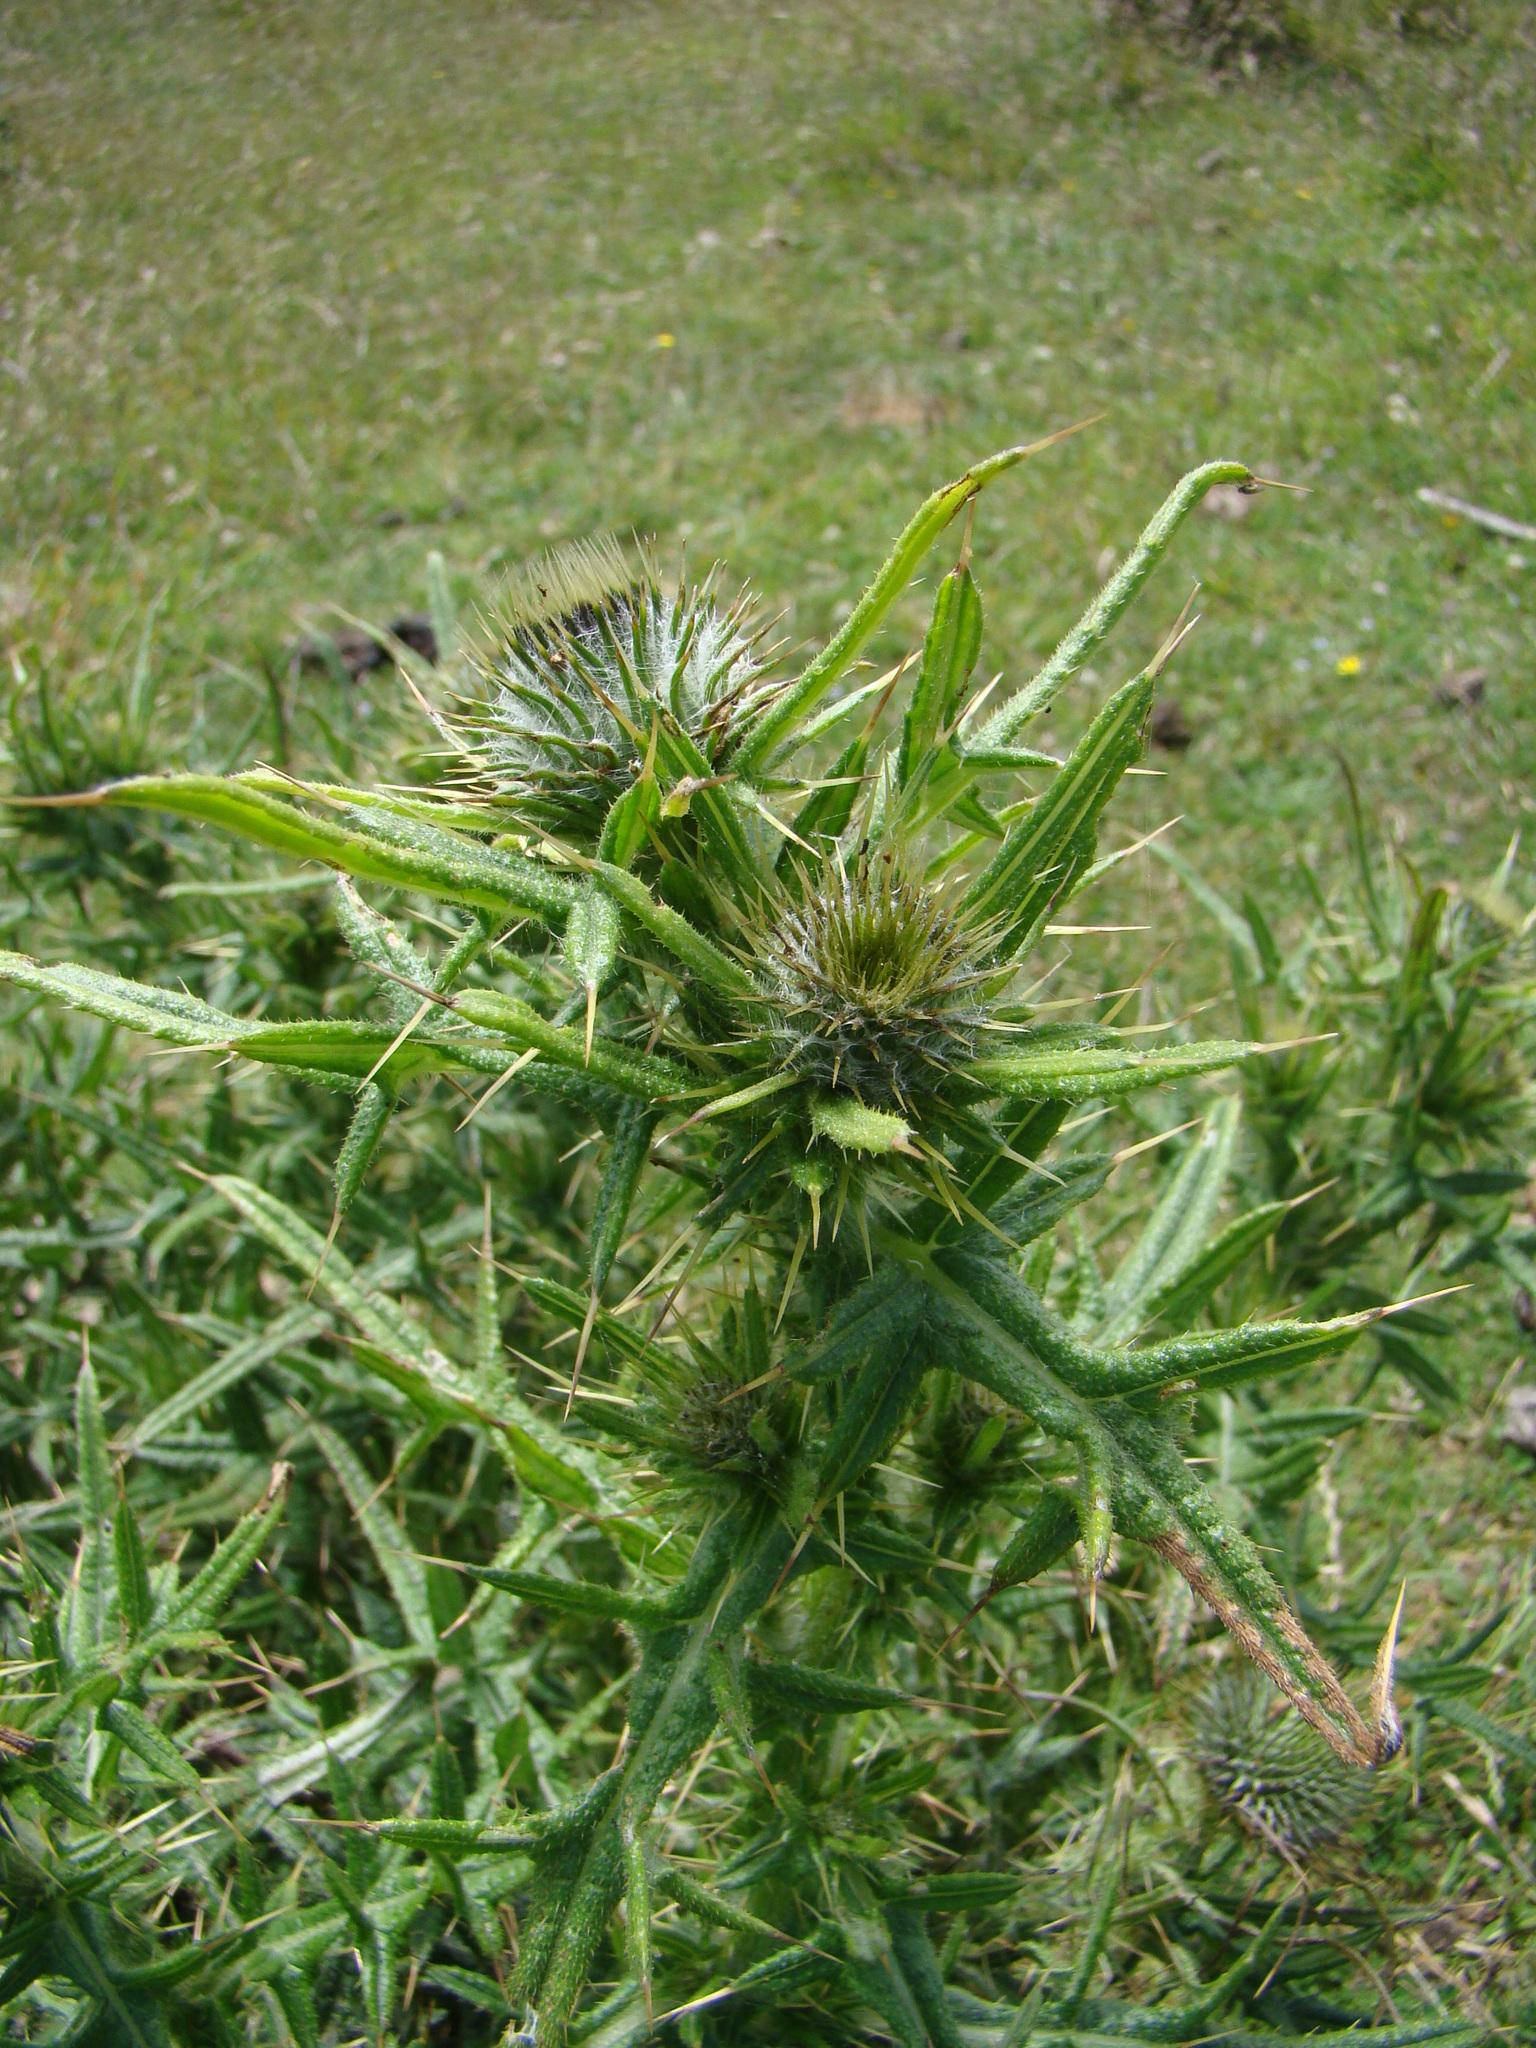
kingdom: Plantae
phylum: Tracheophyta
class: Magnoliopsida
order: Asterales
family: Asteraceae
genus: Cirsium
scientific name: Cirsium vulgare
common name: Bull thistle
